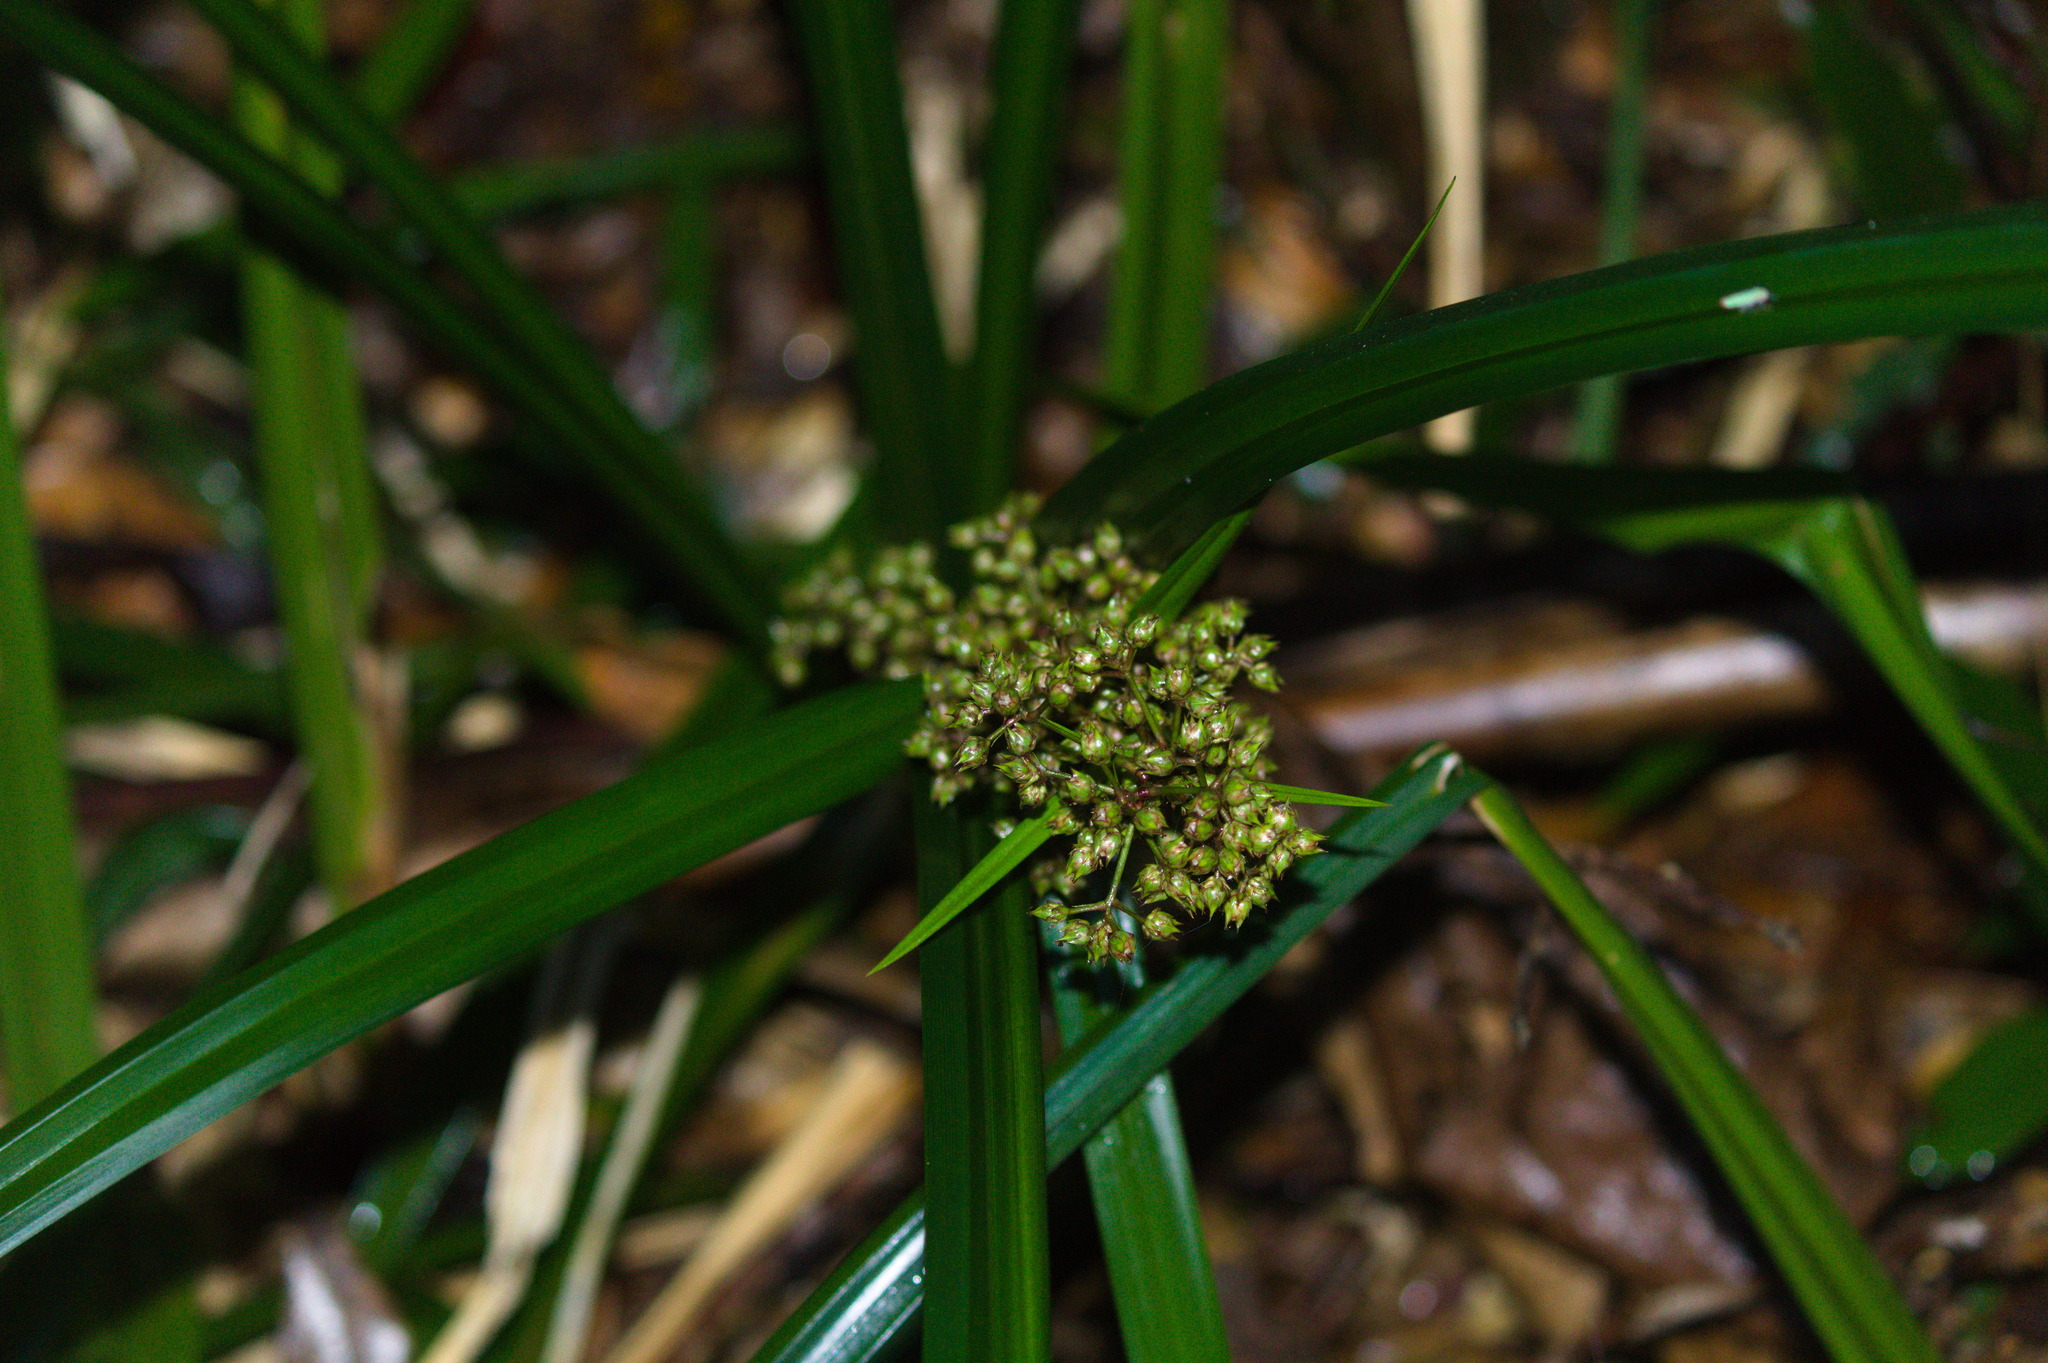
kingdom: Plantae
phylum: Tracheophyta
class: Liliopsida
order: Poales
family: Cyperaceae
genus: Becquerelia
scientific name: Becquerelia cymosa
